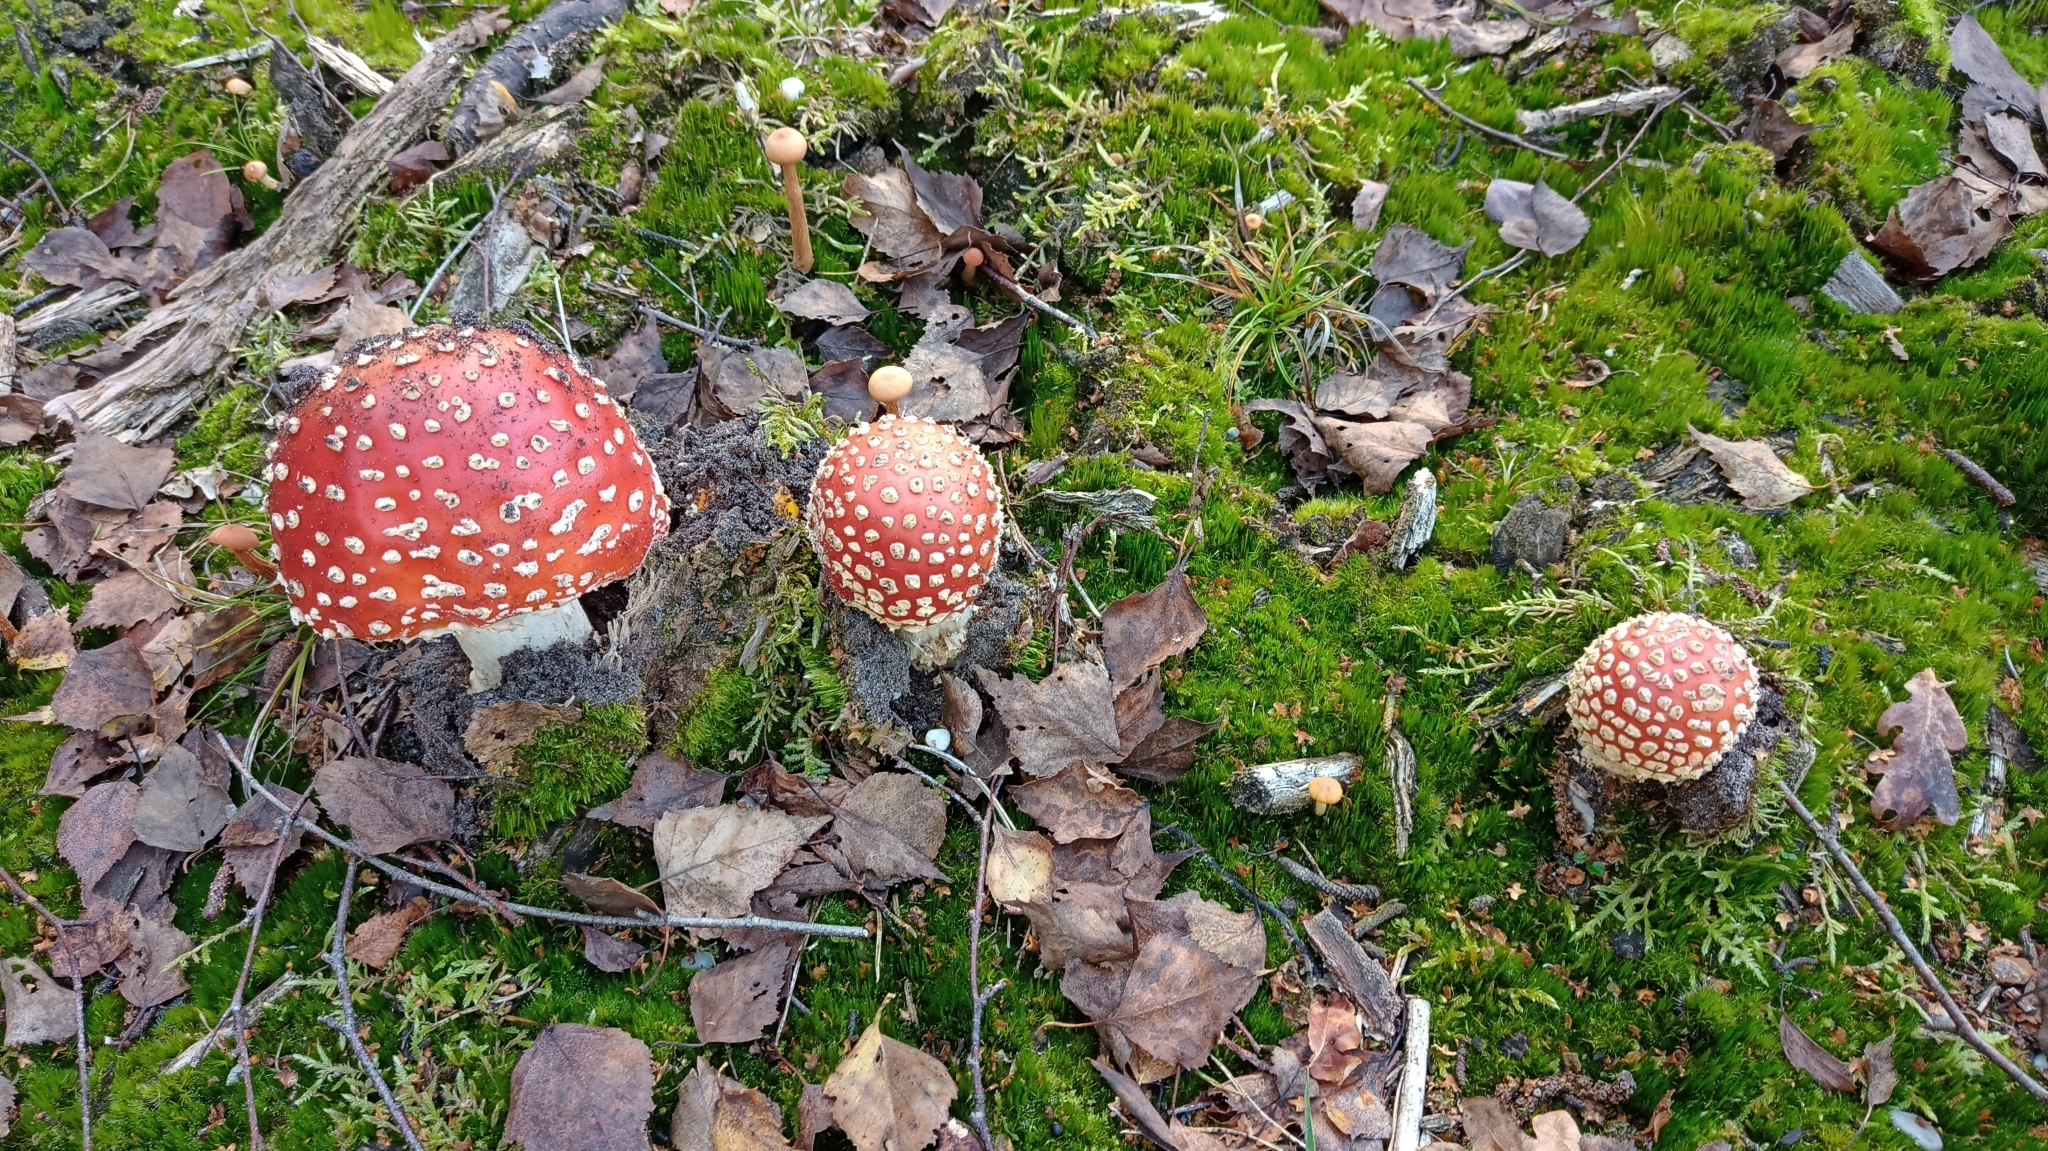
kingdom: Fungi
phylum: Basidiomycota
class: Agaricomycetes
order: Agaricales
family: Amanitaceae
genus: Amanita
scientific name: Amanita muscaria
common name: Fly agaric
